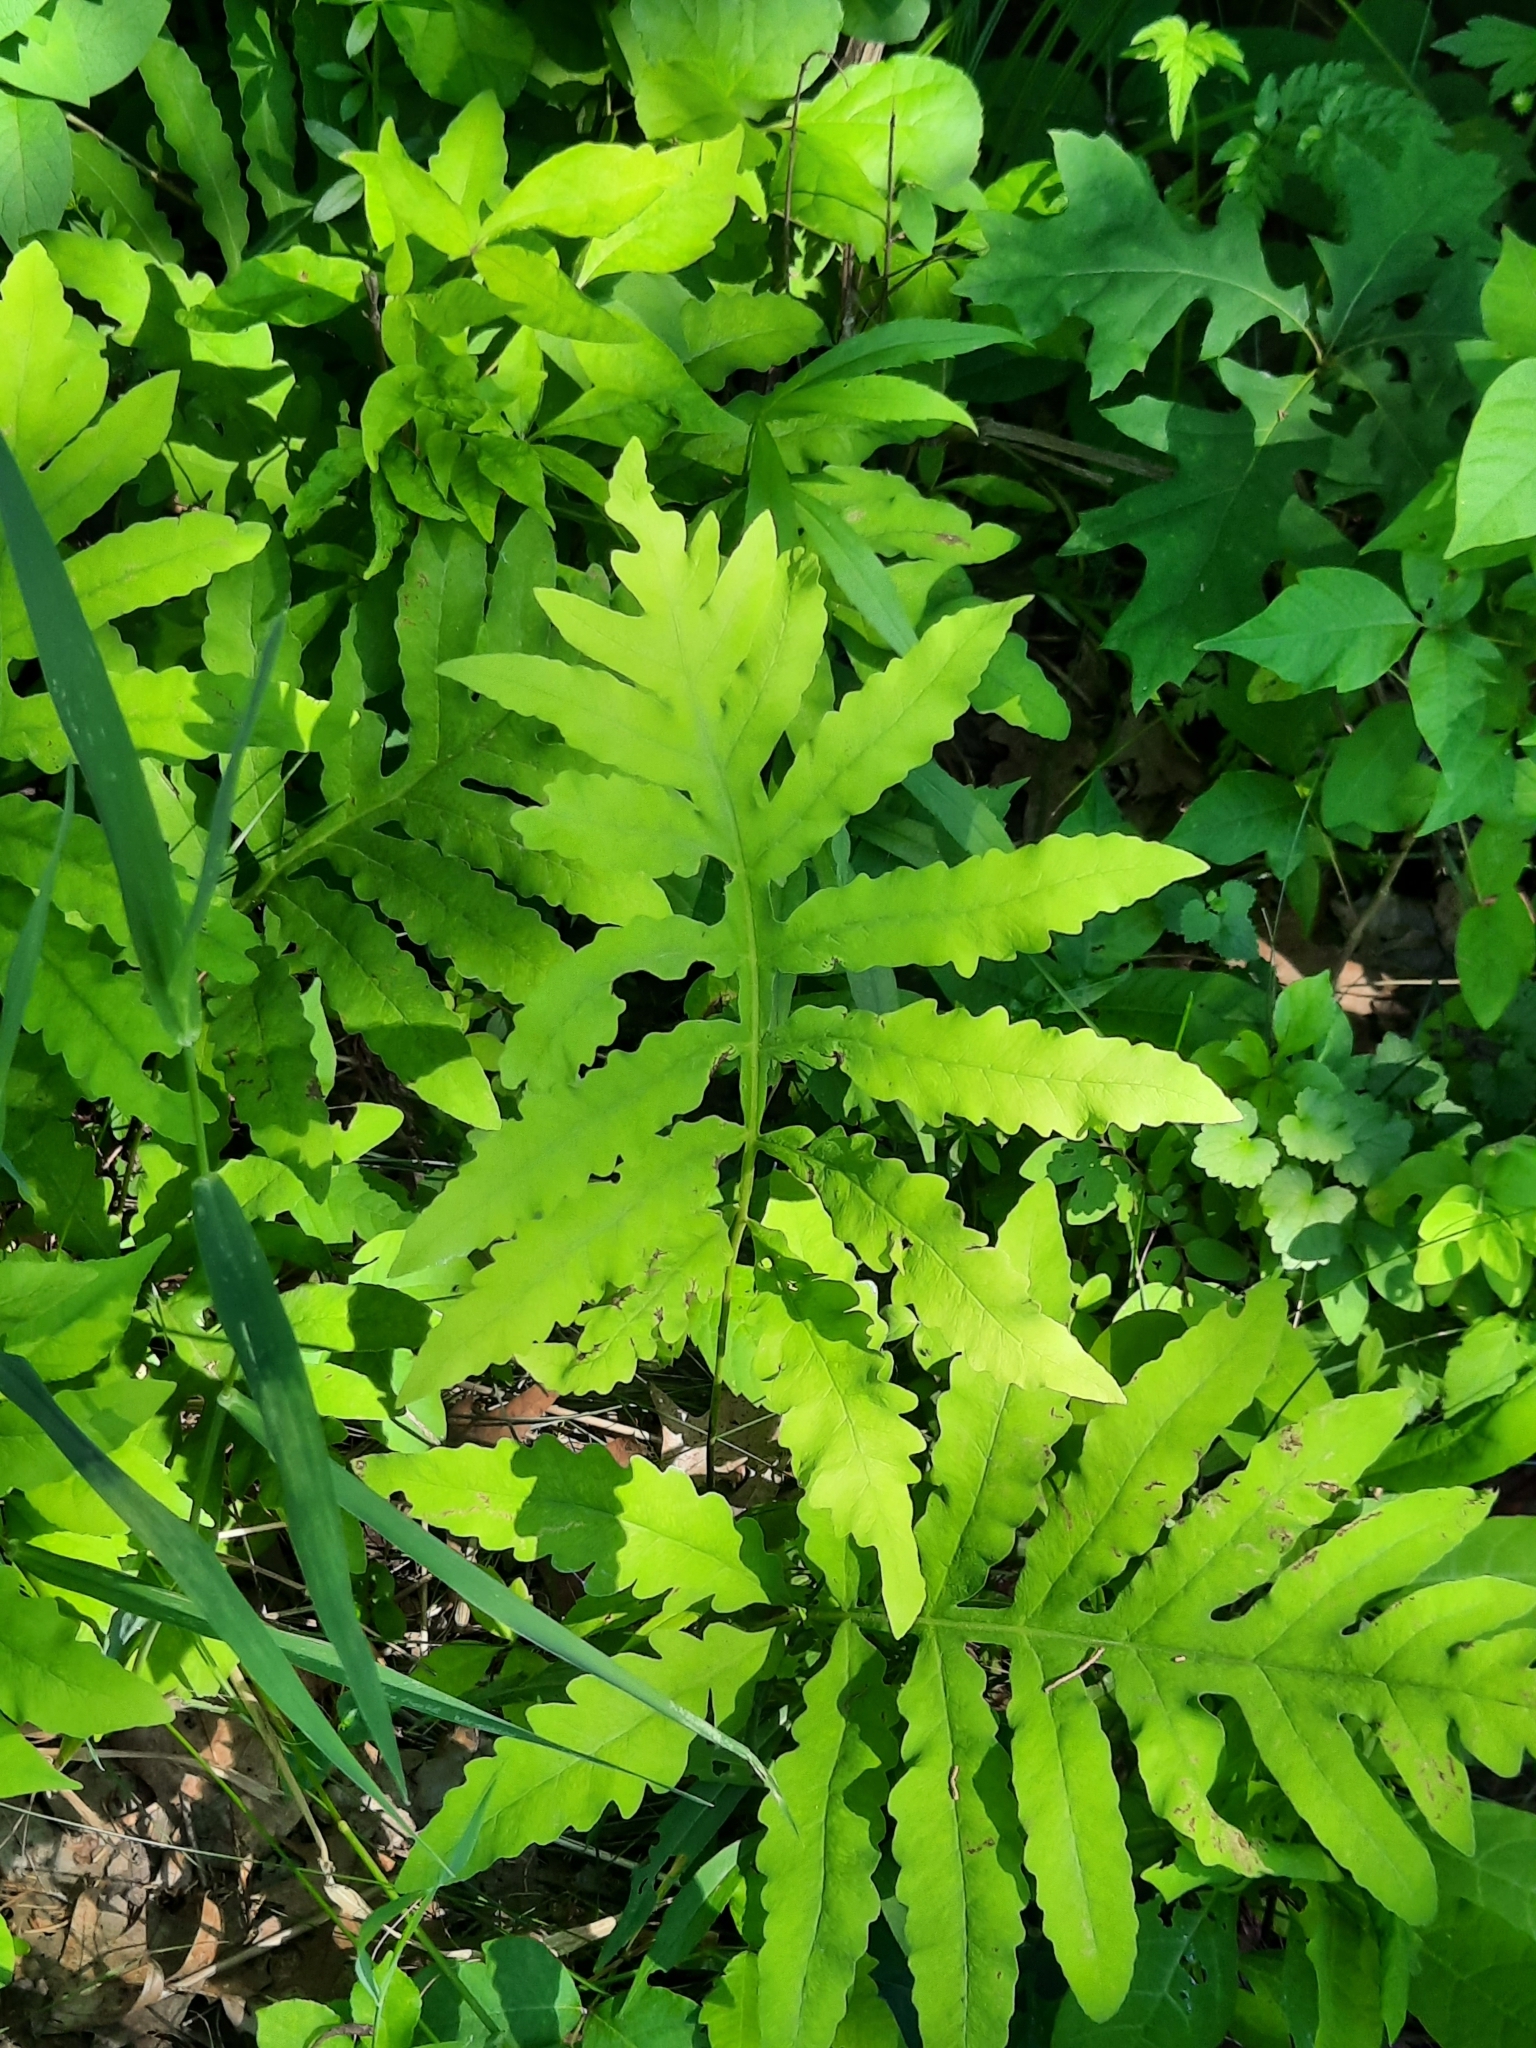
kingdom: Plantae
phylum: Tracheophyta
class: Polypodiopsida
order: Polypodiales
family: Onocleaceae
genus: Onoclea
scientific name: Onoclea sensibilis
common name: Sensitive fern
